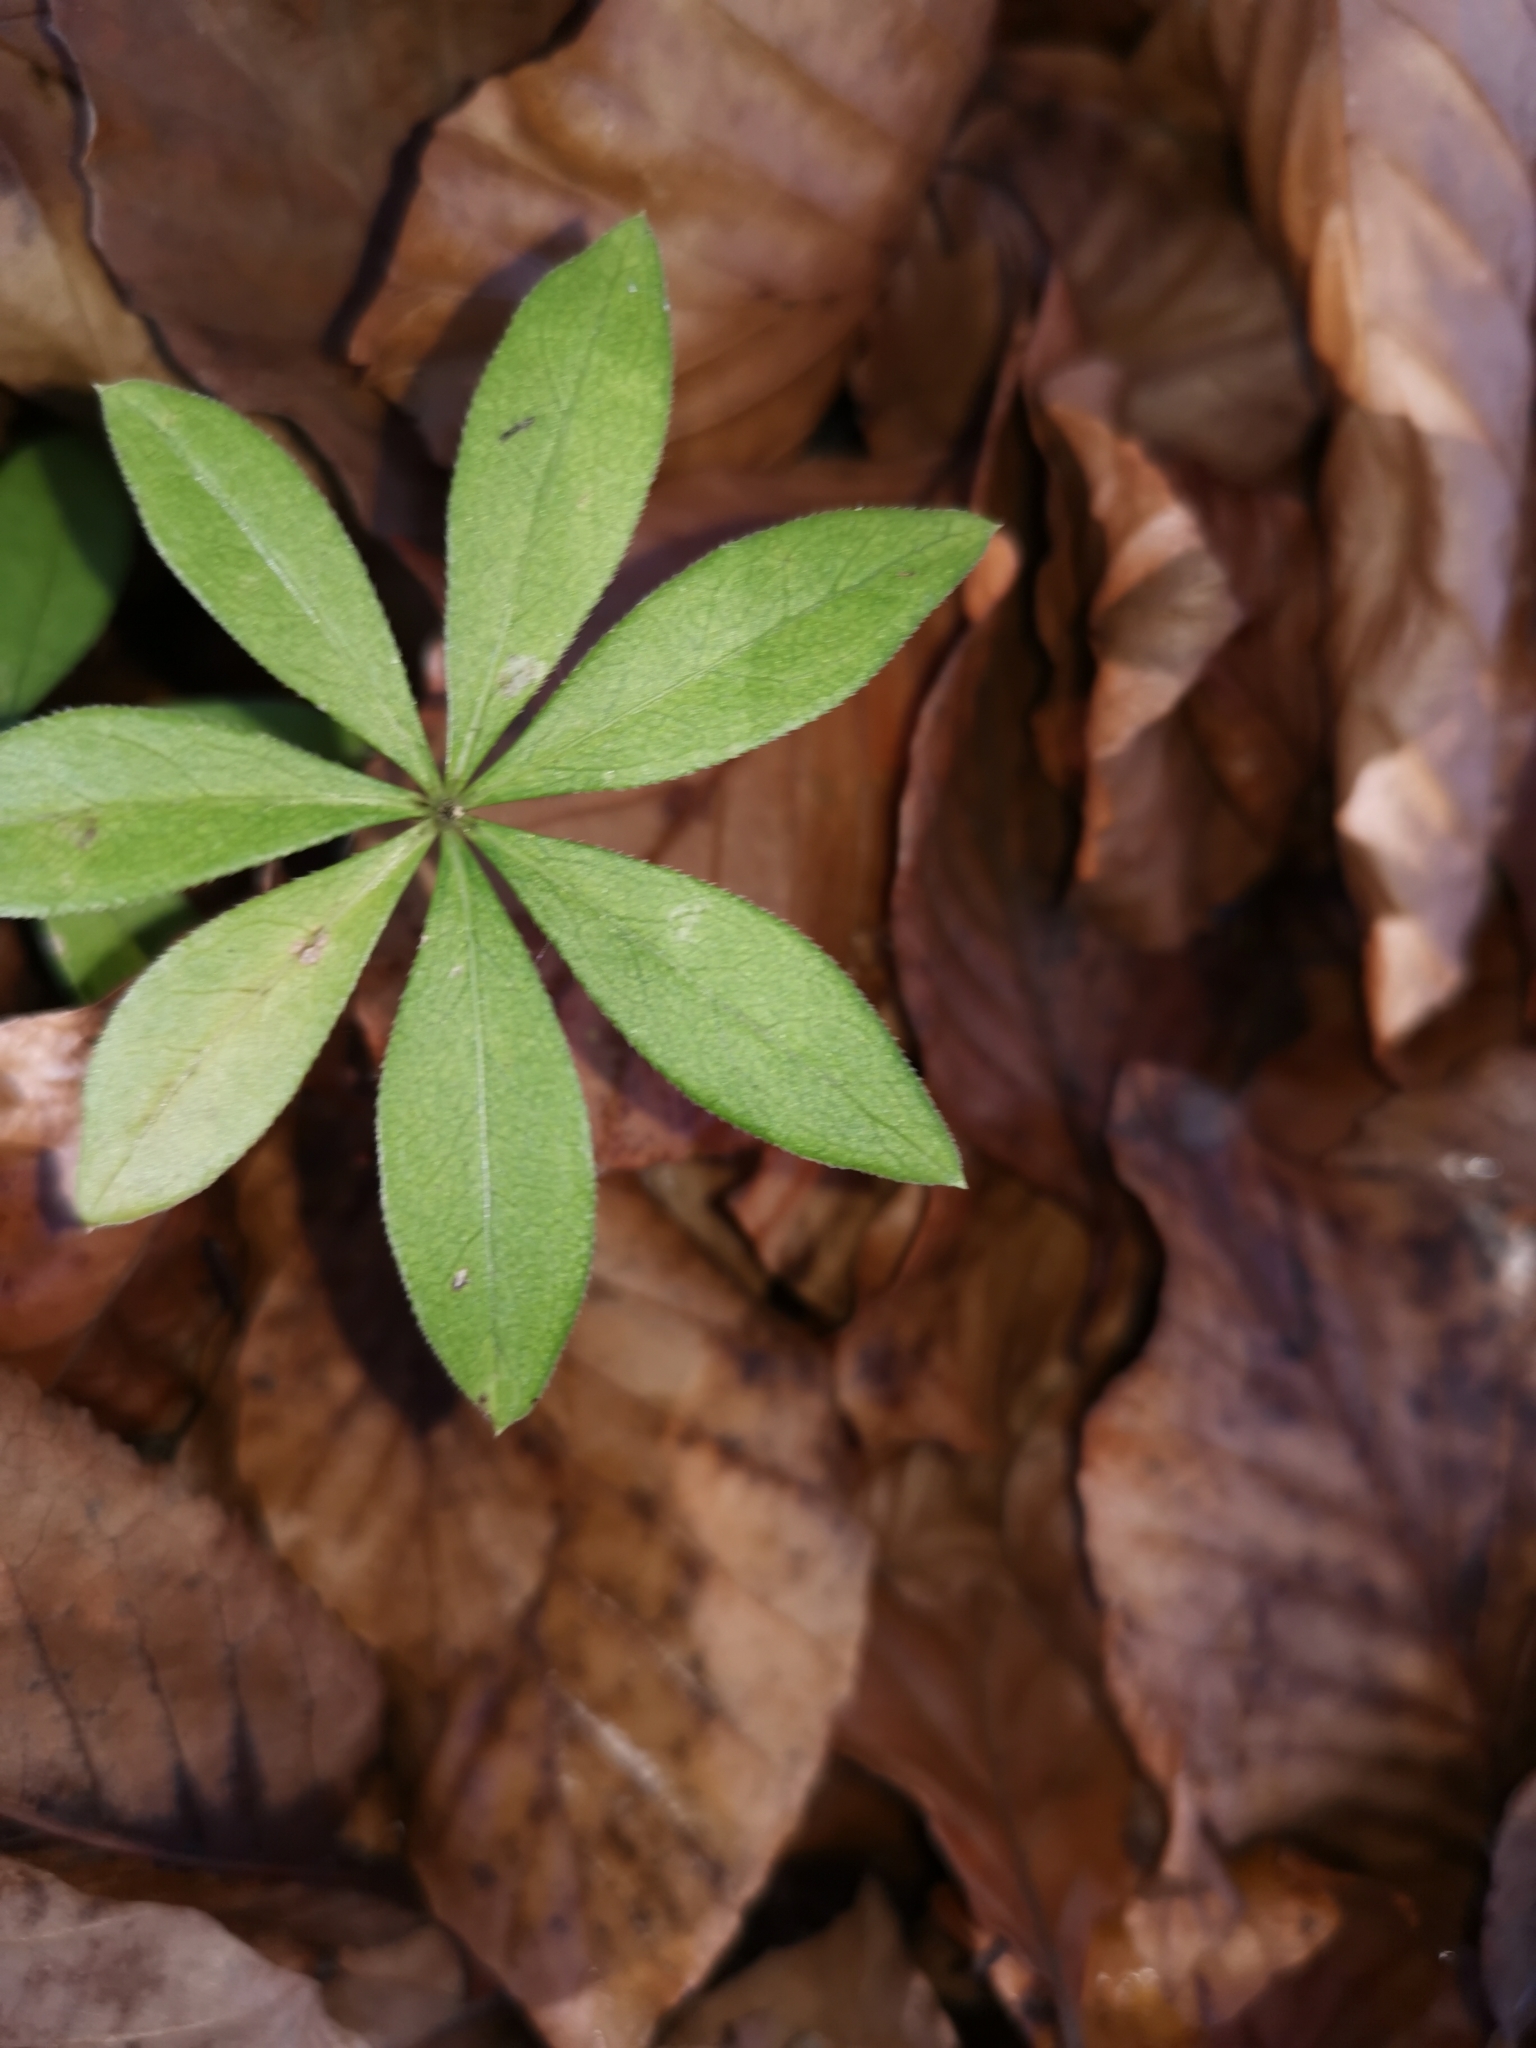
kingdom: Plantae
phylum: Tracheophyta
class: Magnoliopsida
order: Gentianales
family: Rubiaceae
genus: Galium
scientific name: Galium odoratum
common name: Sweet woodruff
